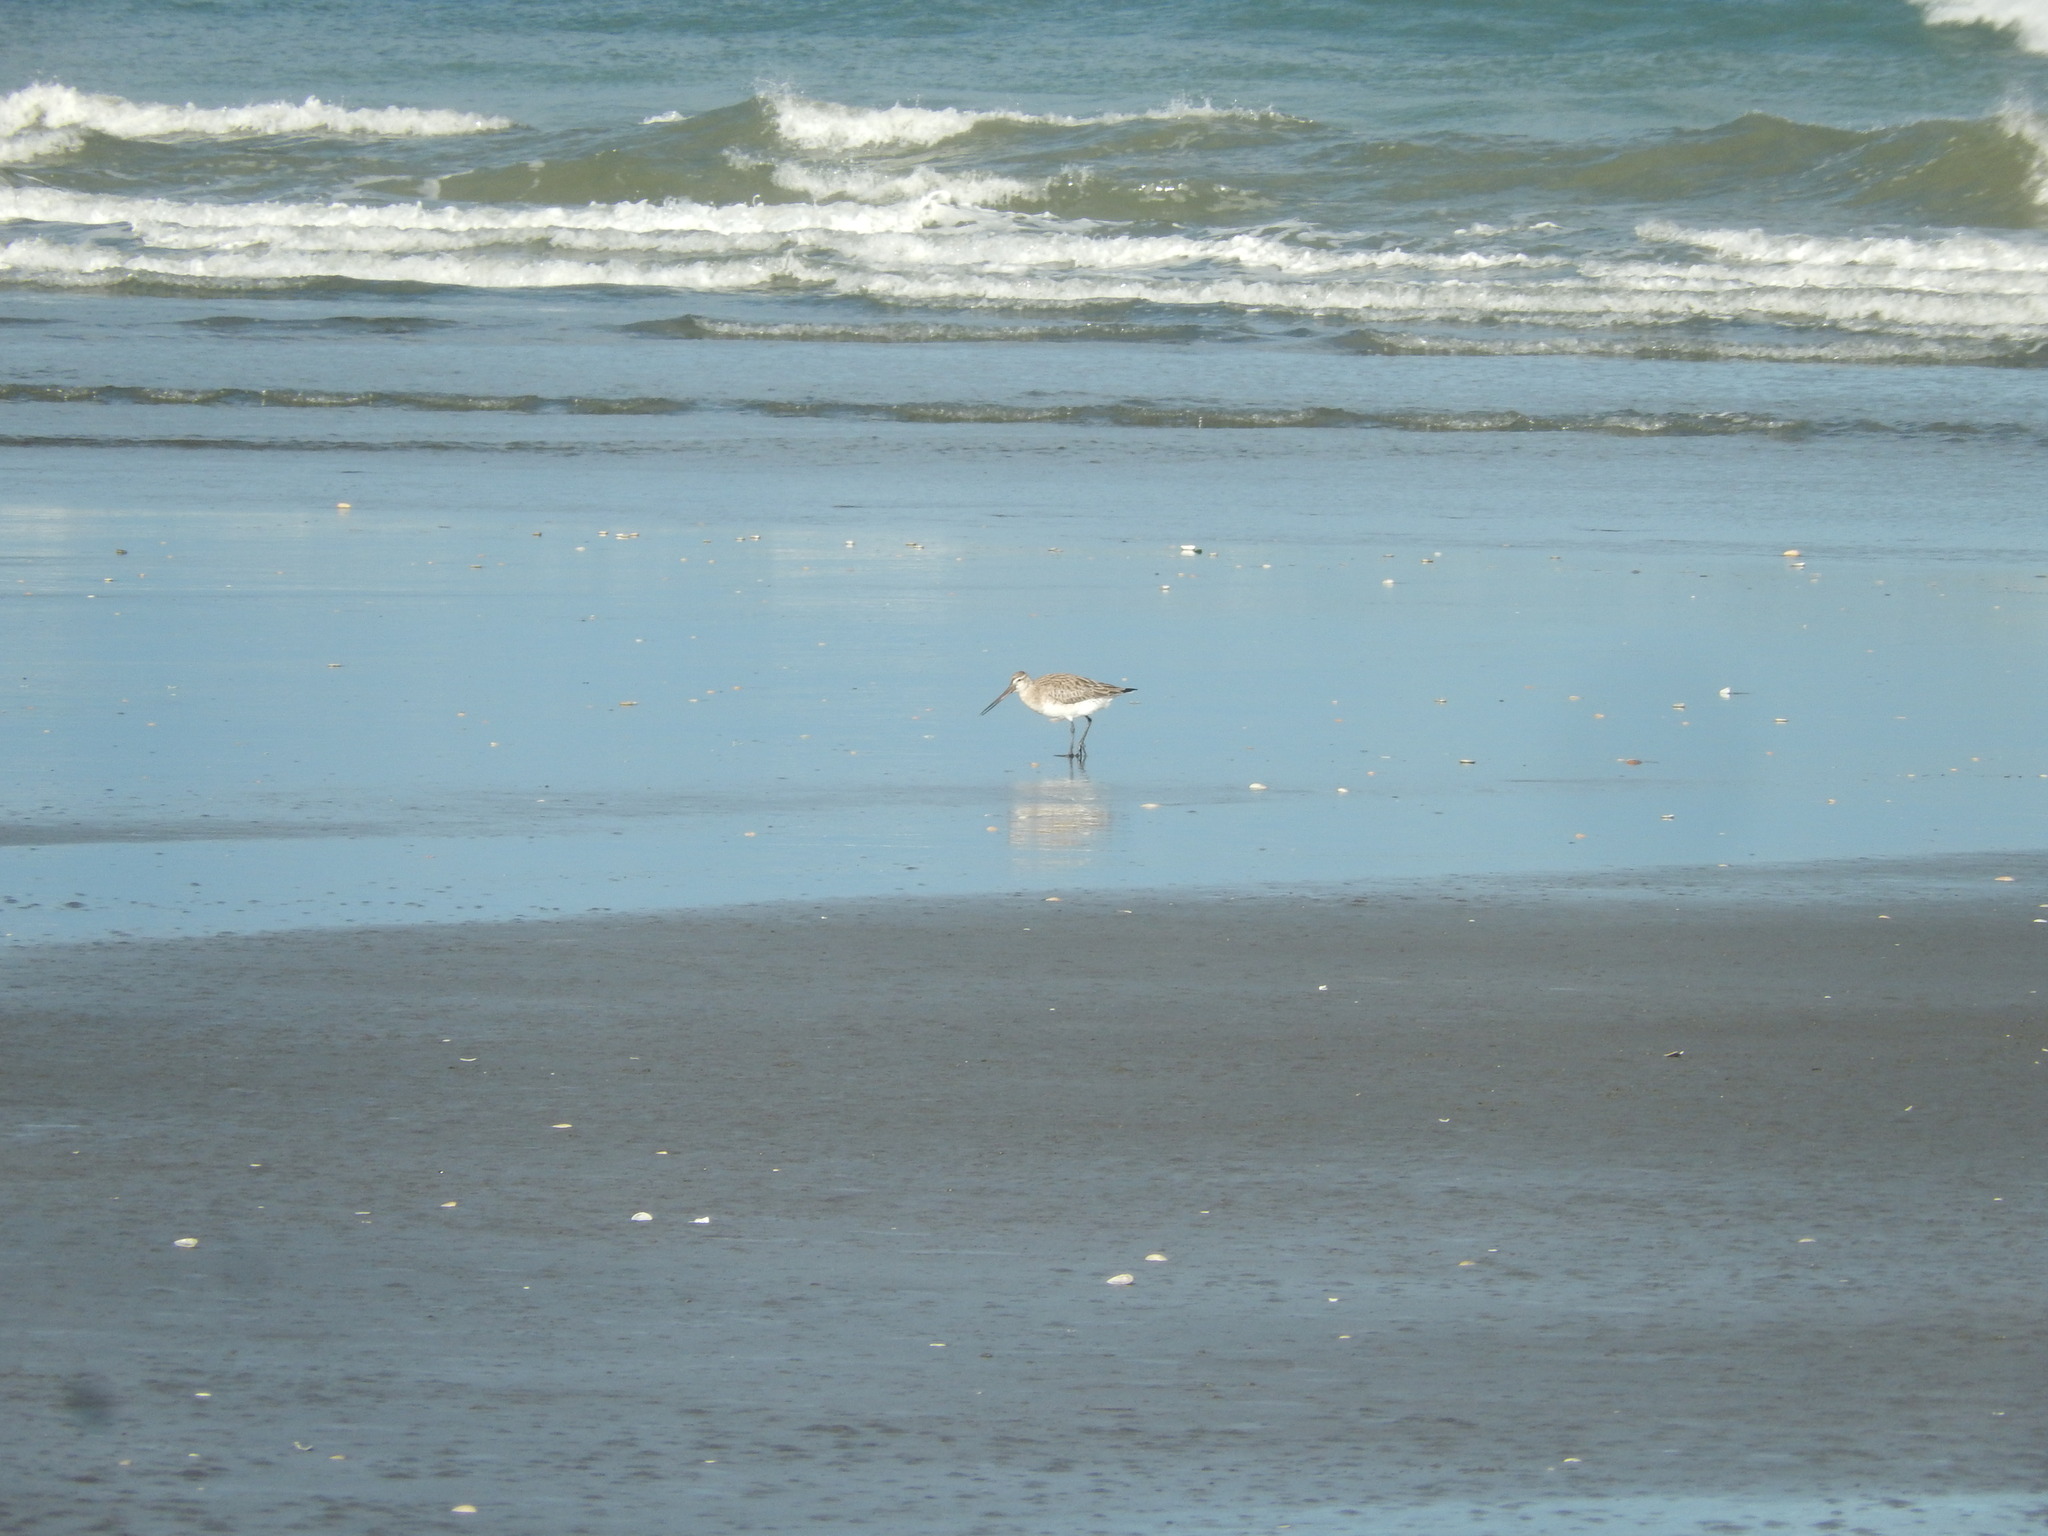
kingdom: Animalia
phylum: Chordata
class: Aves
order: Charadriiformes
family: Scolopacidae
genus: Limosa
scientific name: Limosa lapponica
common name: Bar-tailed godwit
